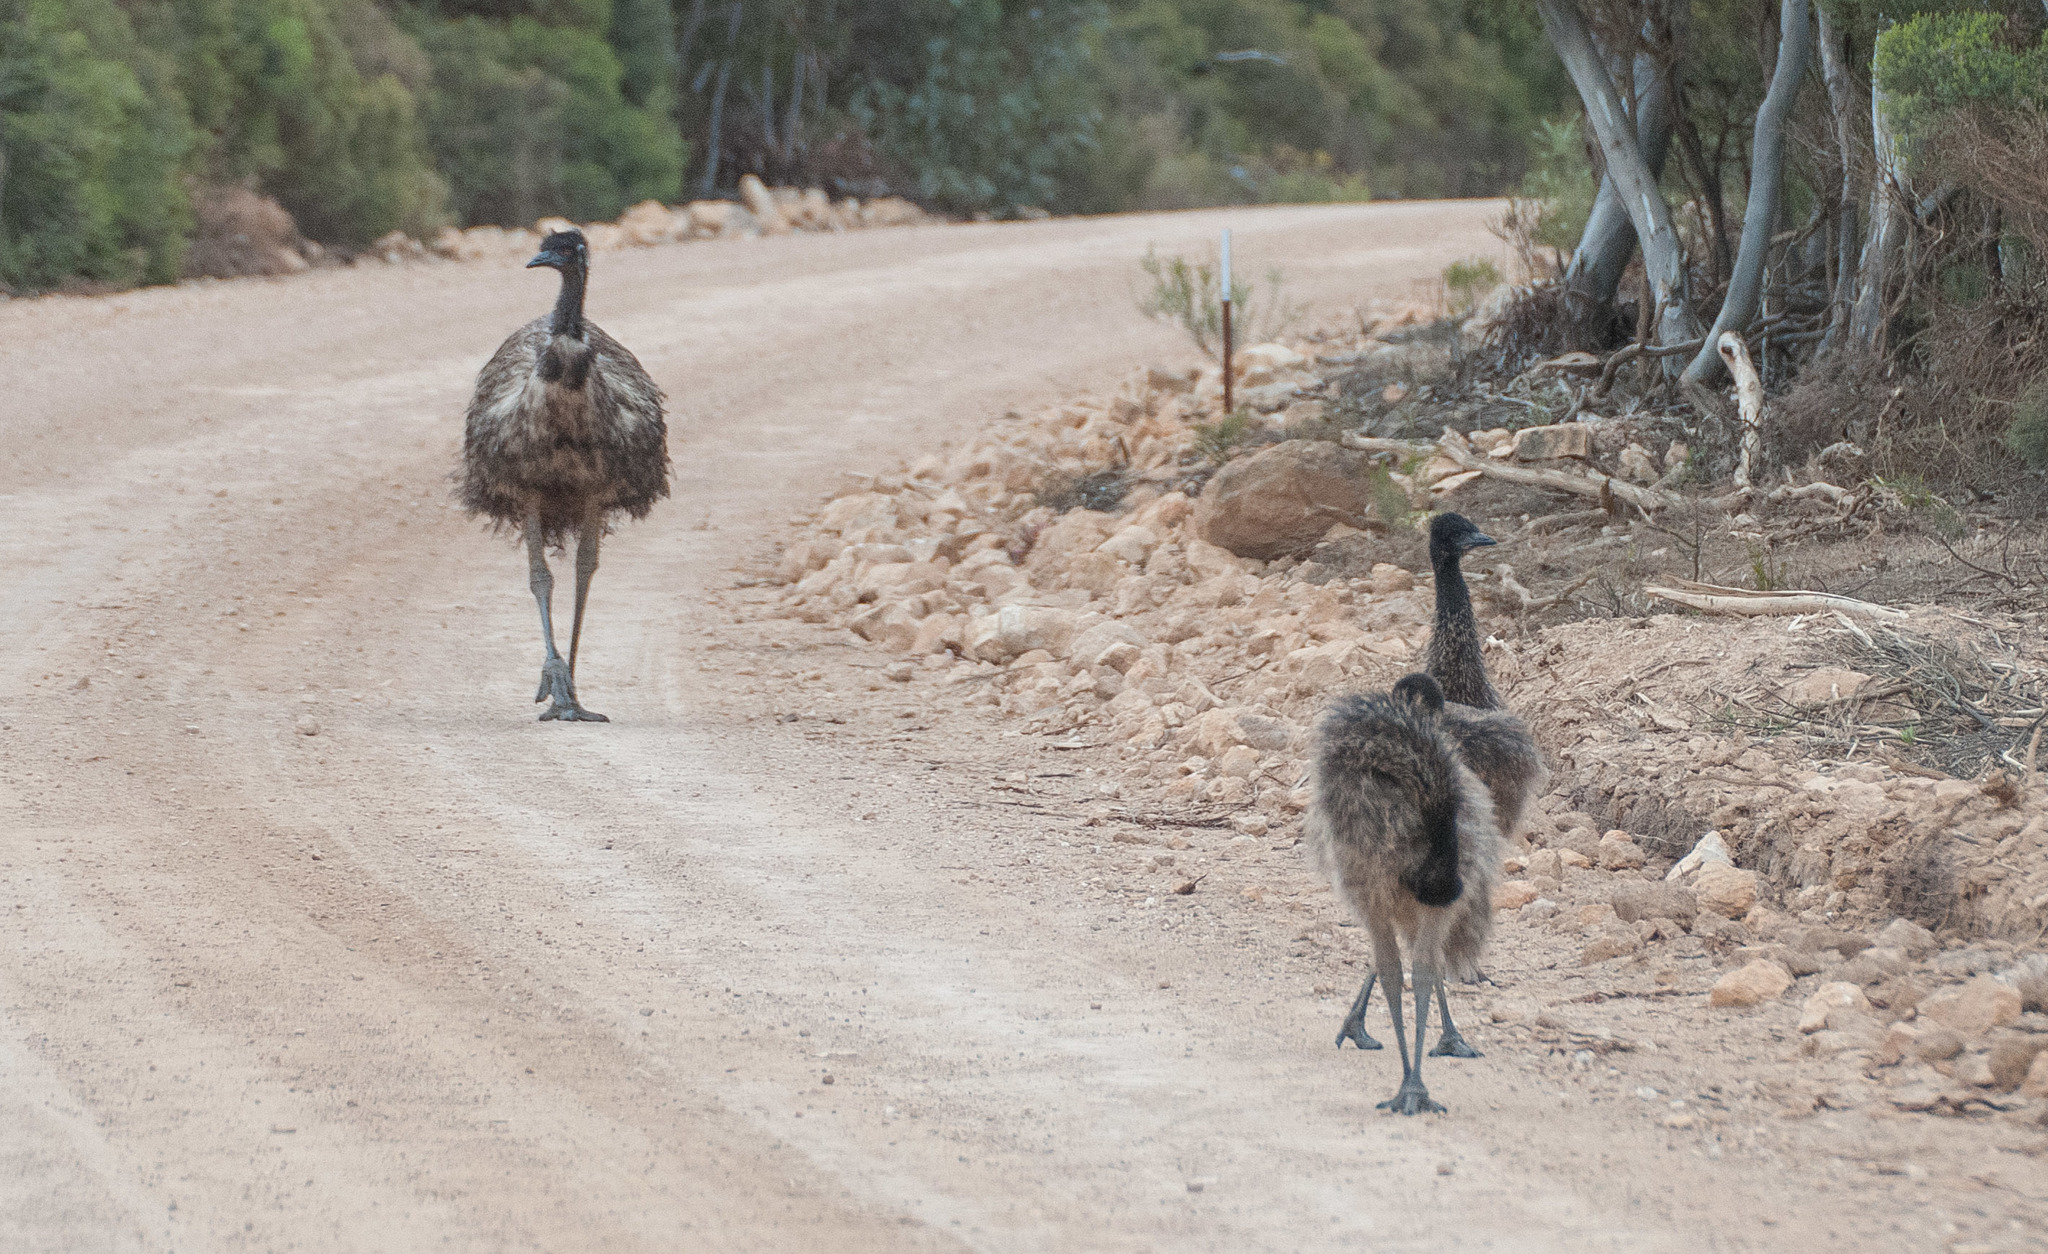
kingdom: Animalia
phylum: Chordata
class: Aves
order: Casuariiformes
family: Dromaiidae
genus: Dromaius
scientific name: Dromaius novaehollandiae
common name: Emu
